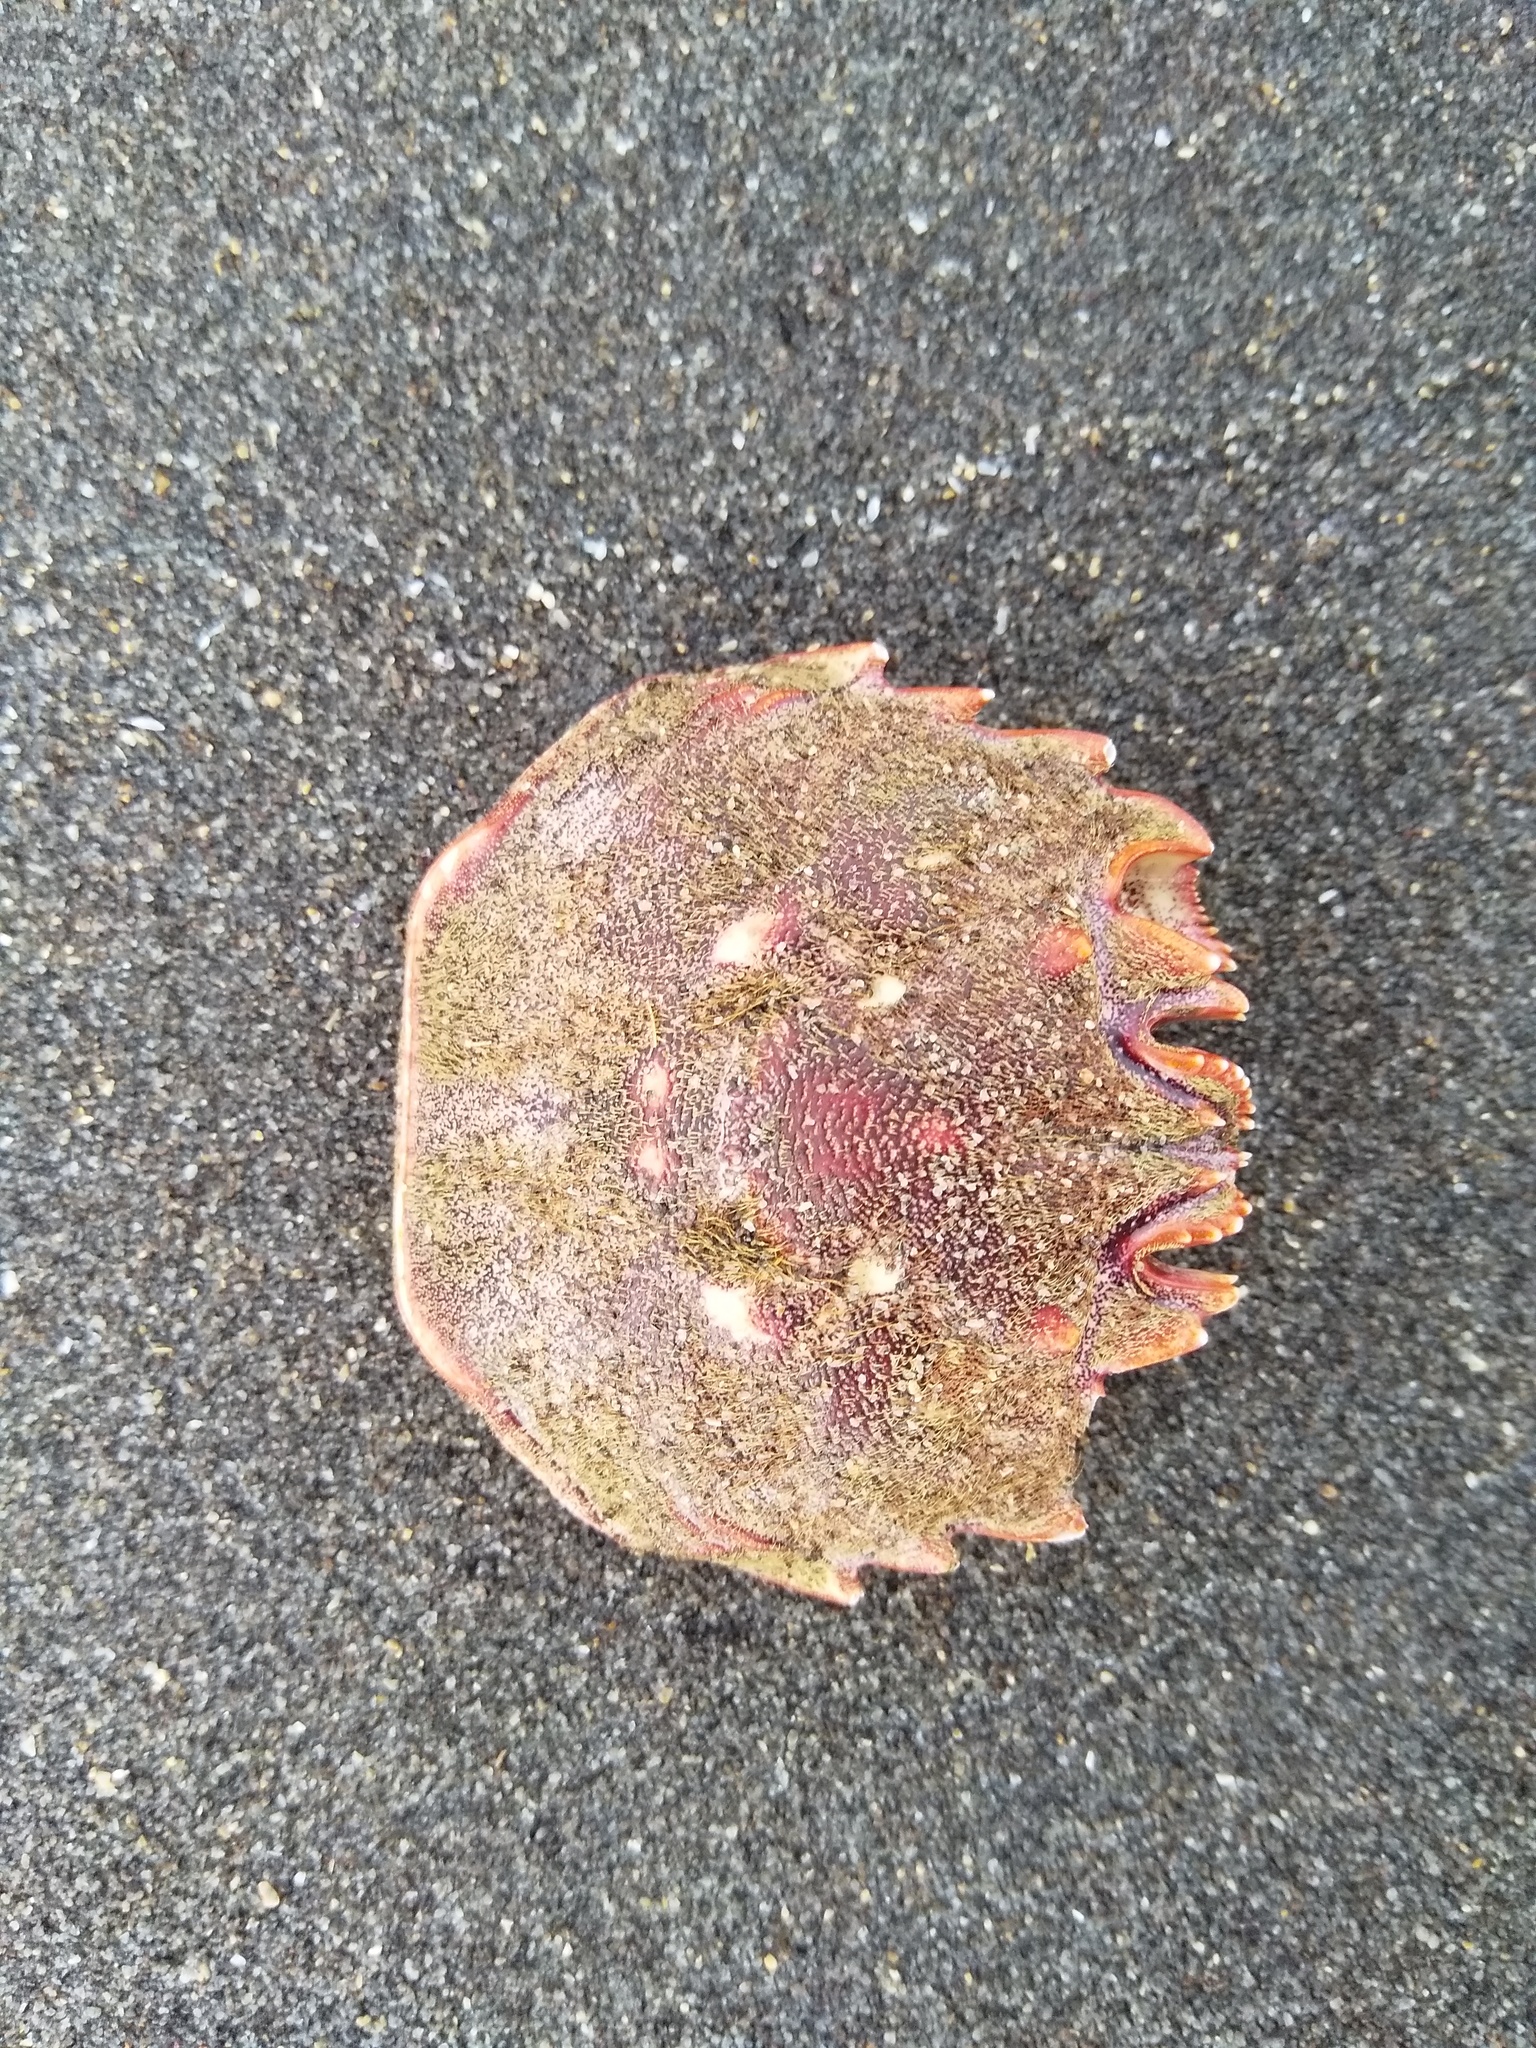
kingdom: Animalia
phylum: Arthropoda
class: Malacostraca
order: Decapoda
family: Plagusiidae
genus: Guinusia
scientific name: Guinusia chabrus
